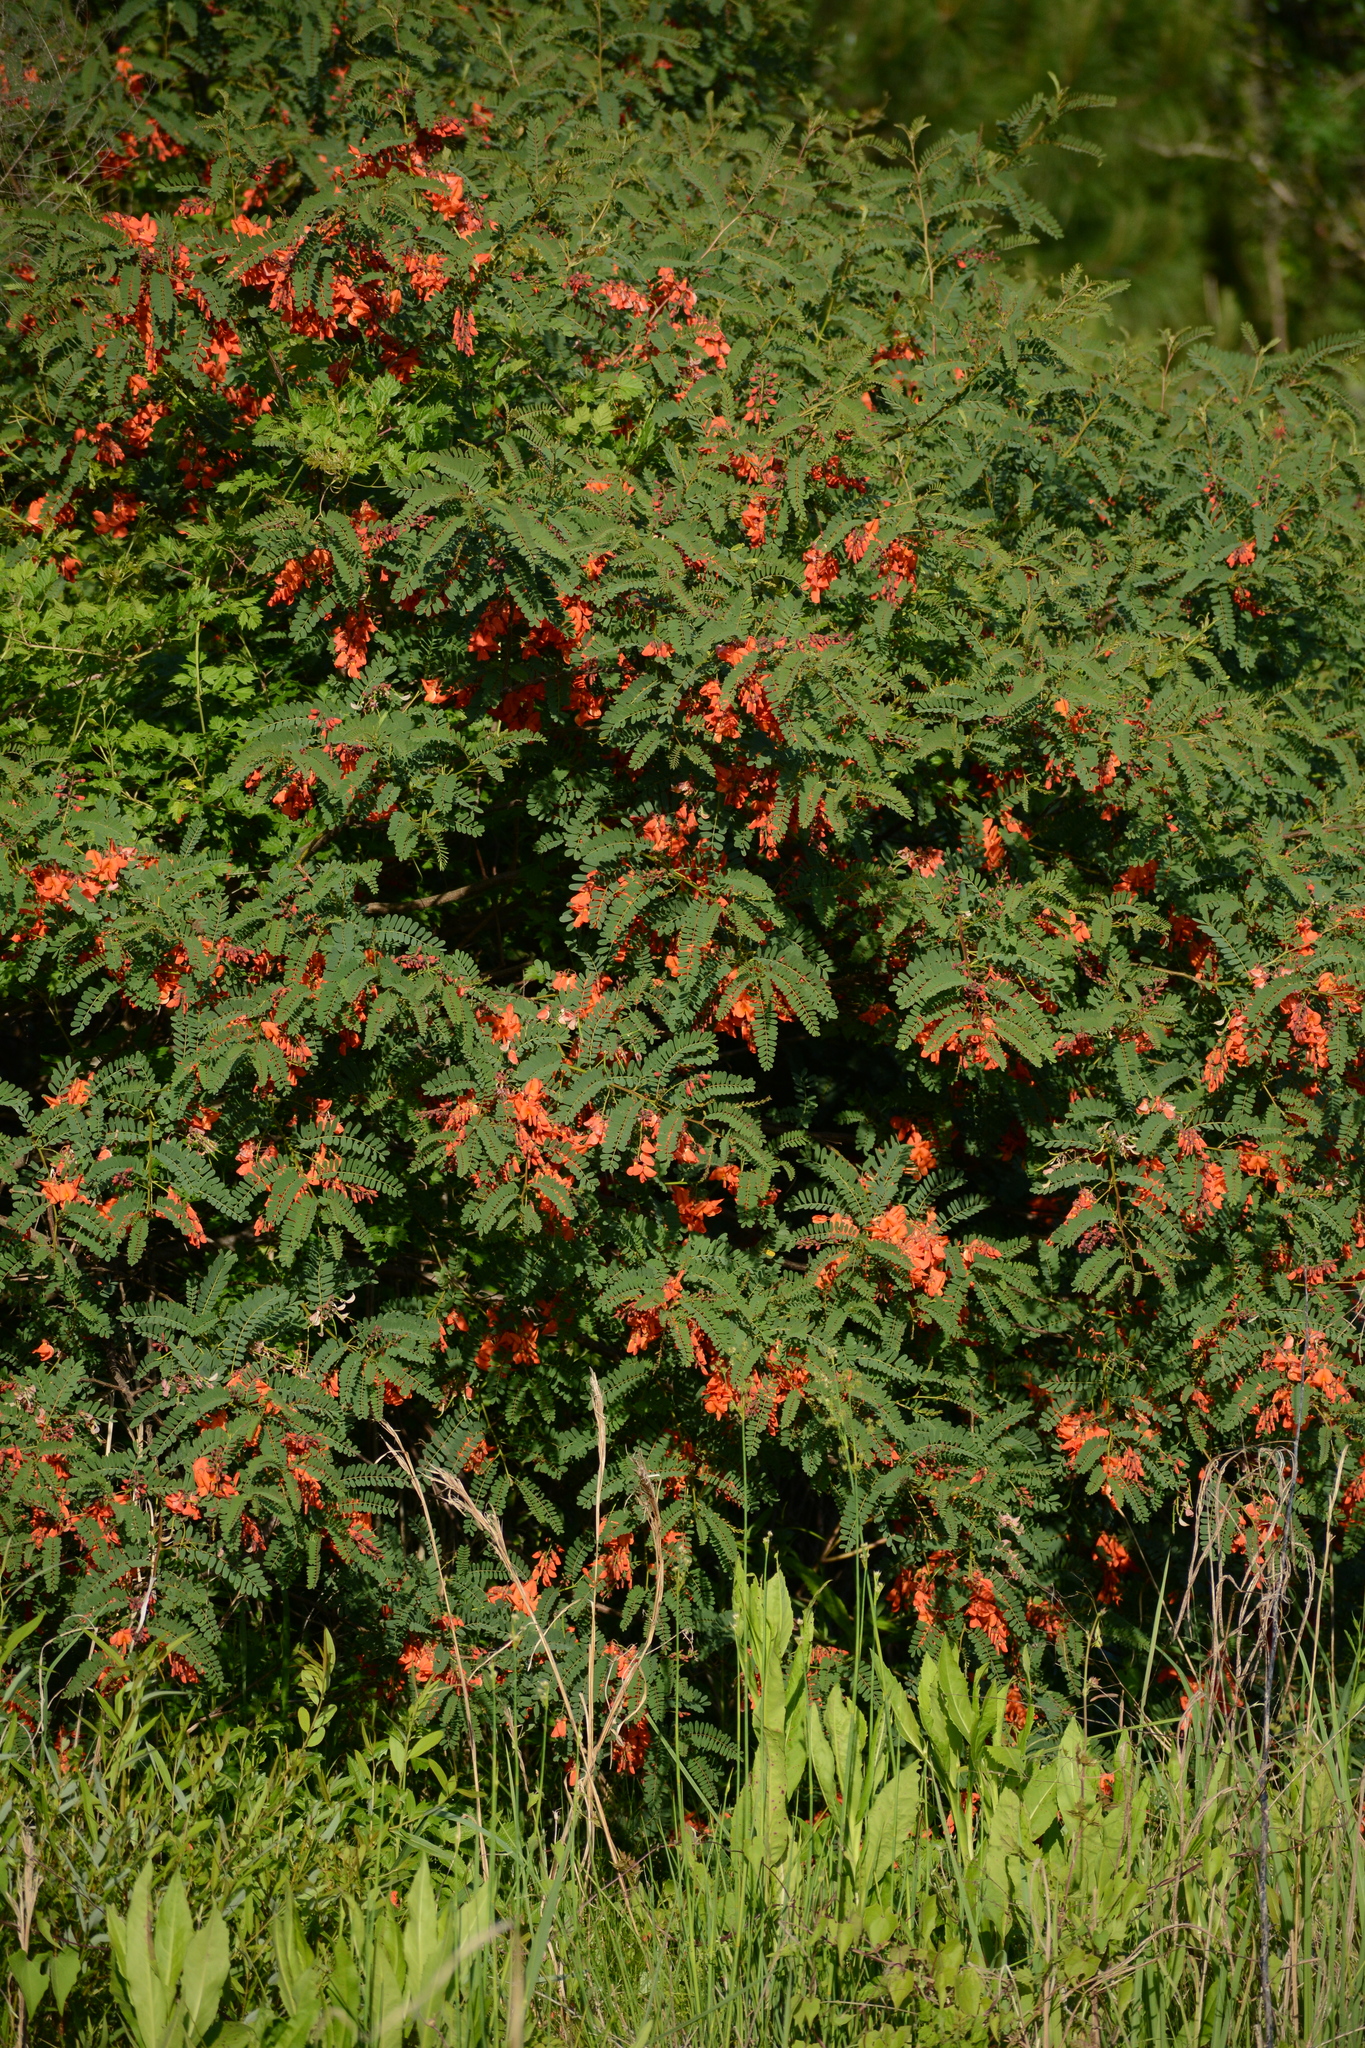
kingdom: Plantae
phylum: Tracheophyta
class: Magnoliopsida
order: Fabales
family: Fabaceae
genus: Sesbania
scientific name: Sesbania punicea
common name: Rattlebox
